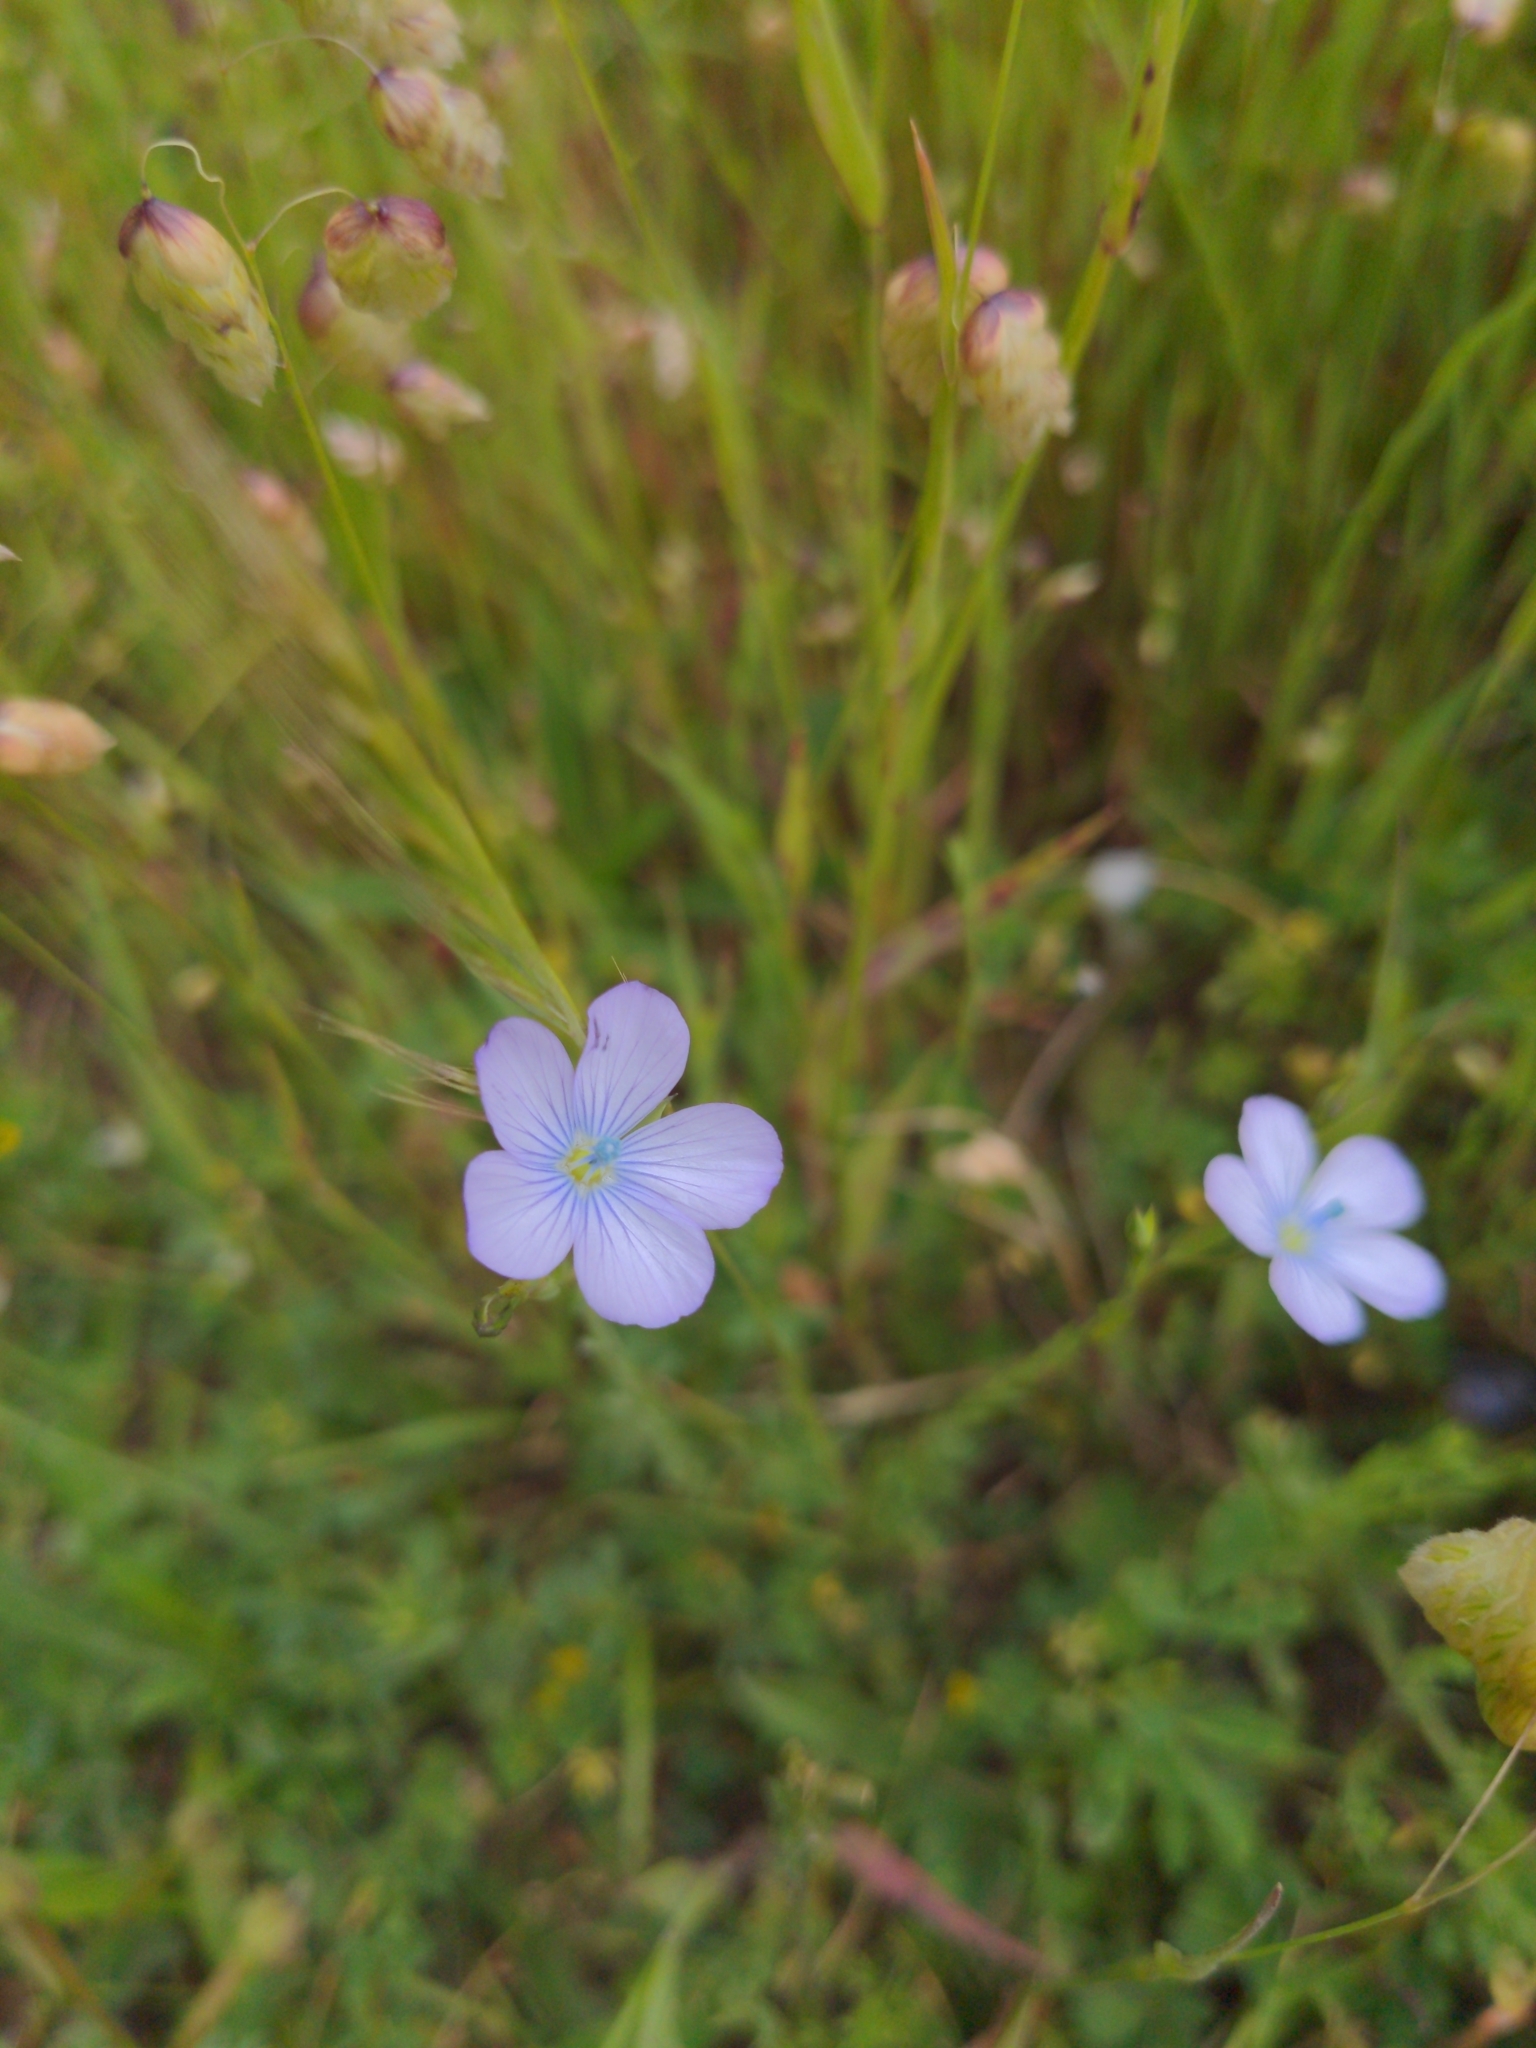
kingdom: Plantae
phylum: Tracheophyta
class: Magnoliopsida
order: Malpighiales
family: Linaceae
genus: Linum
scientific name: Linum bienne
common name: Pale flax
